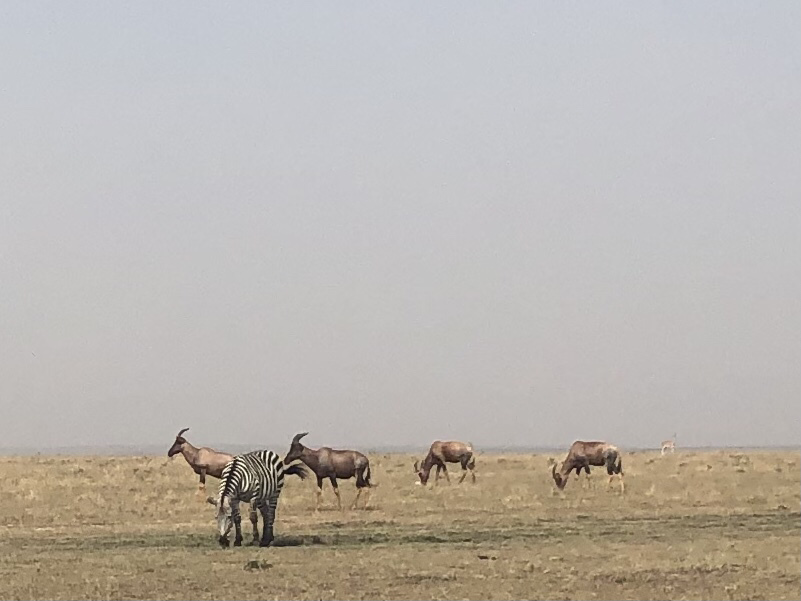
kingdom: Animalia
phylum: Chordata
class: Mammalia
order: Artiodactyla
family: Bovidae
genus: Damaliscus
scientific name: Damaliscus korrigum
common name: Topi
